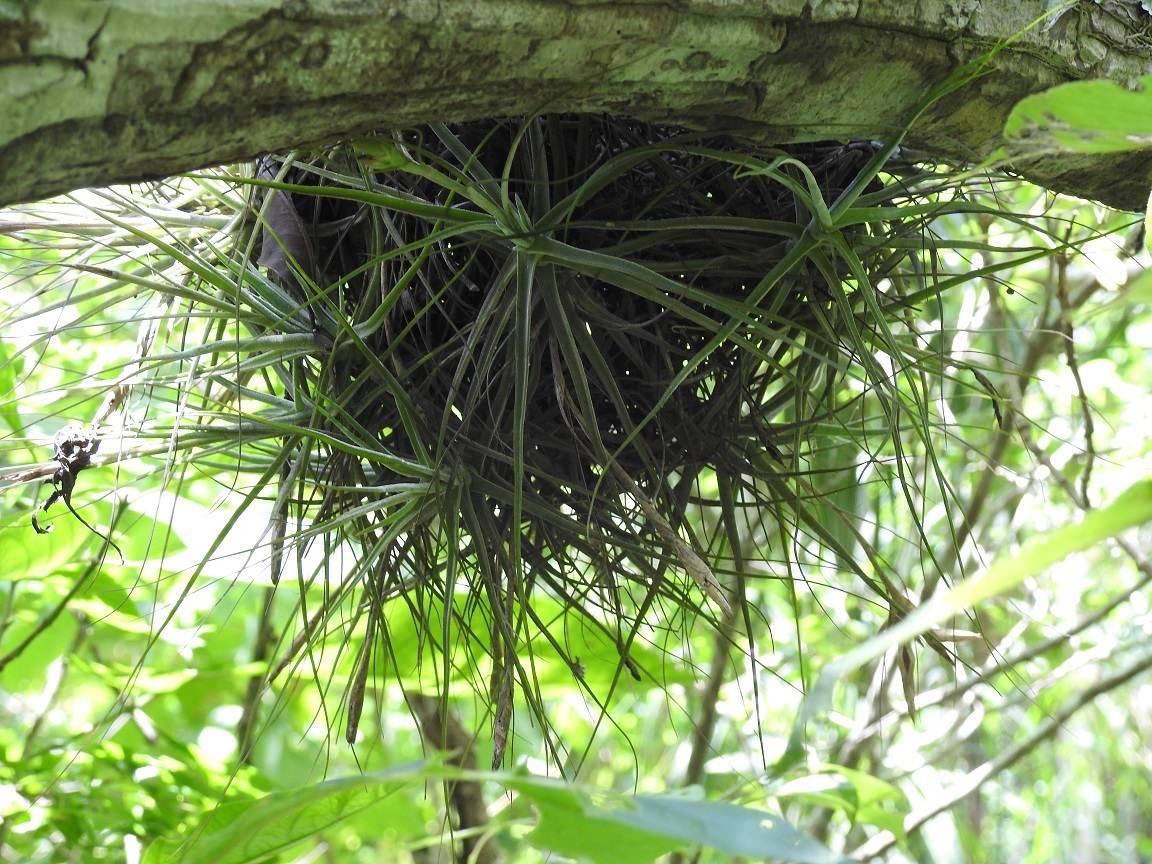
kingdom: Plantae
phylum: Tracheophyta
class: Liliopsida
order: Poales
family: Bromeliaceae
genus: Tillandsia
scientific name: Tillandsia schiedeana
